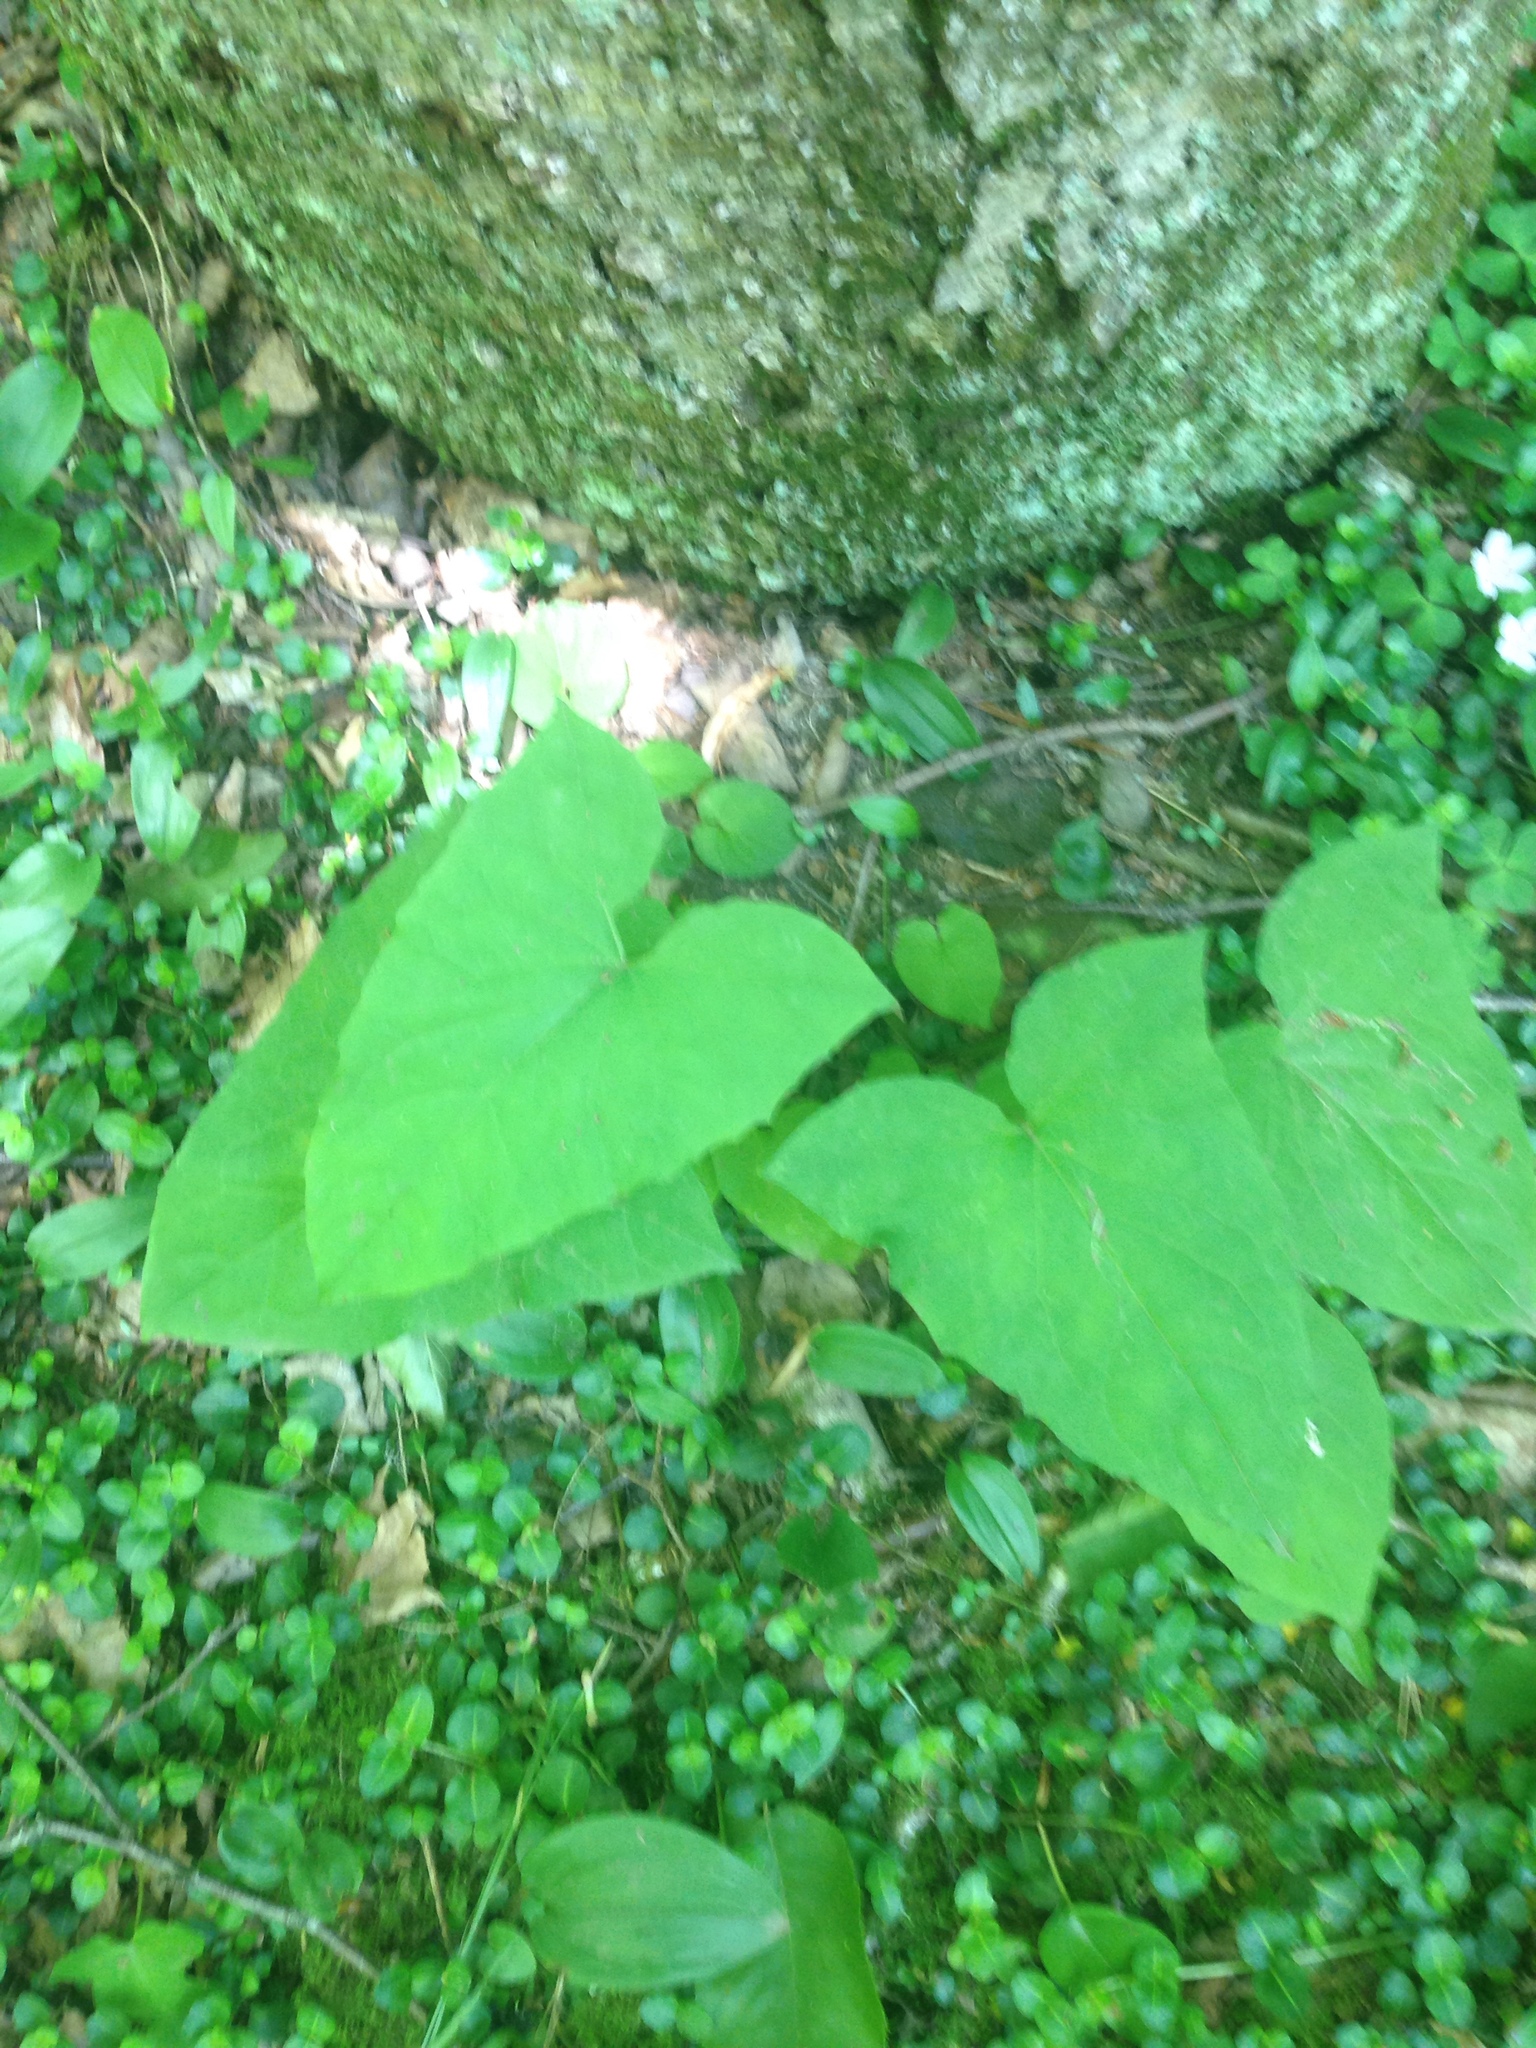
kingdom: Plantae
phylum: Tracheophyta
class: Magnoliopsida
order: Solanales
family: Convolvulaceae
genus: Calystegia
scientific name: Calystegia sepium
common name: Hedge bindweed
